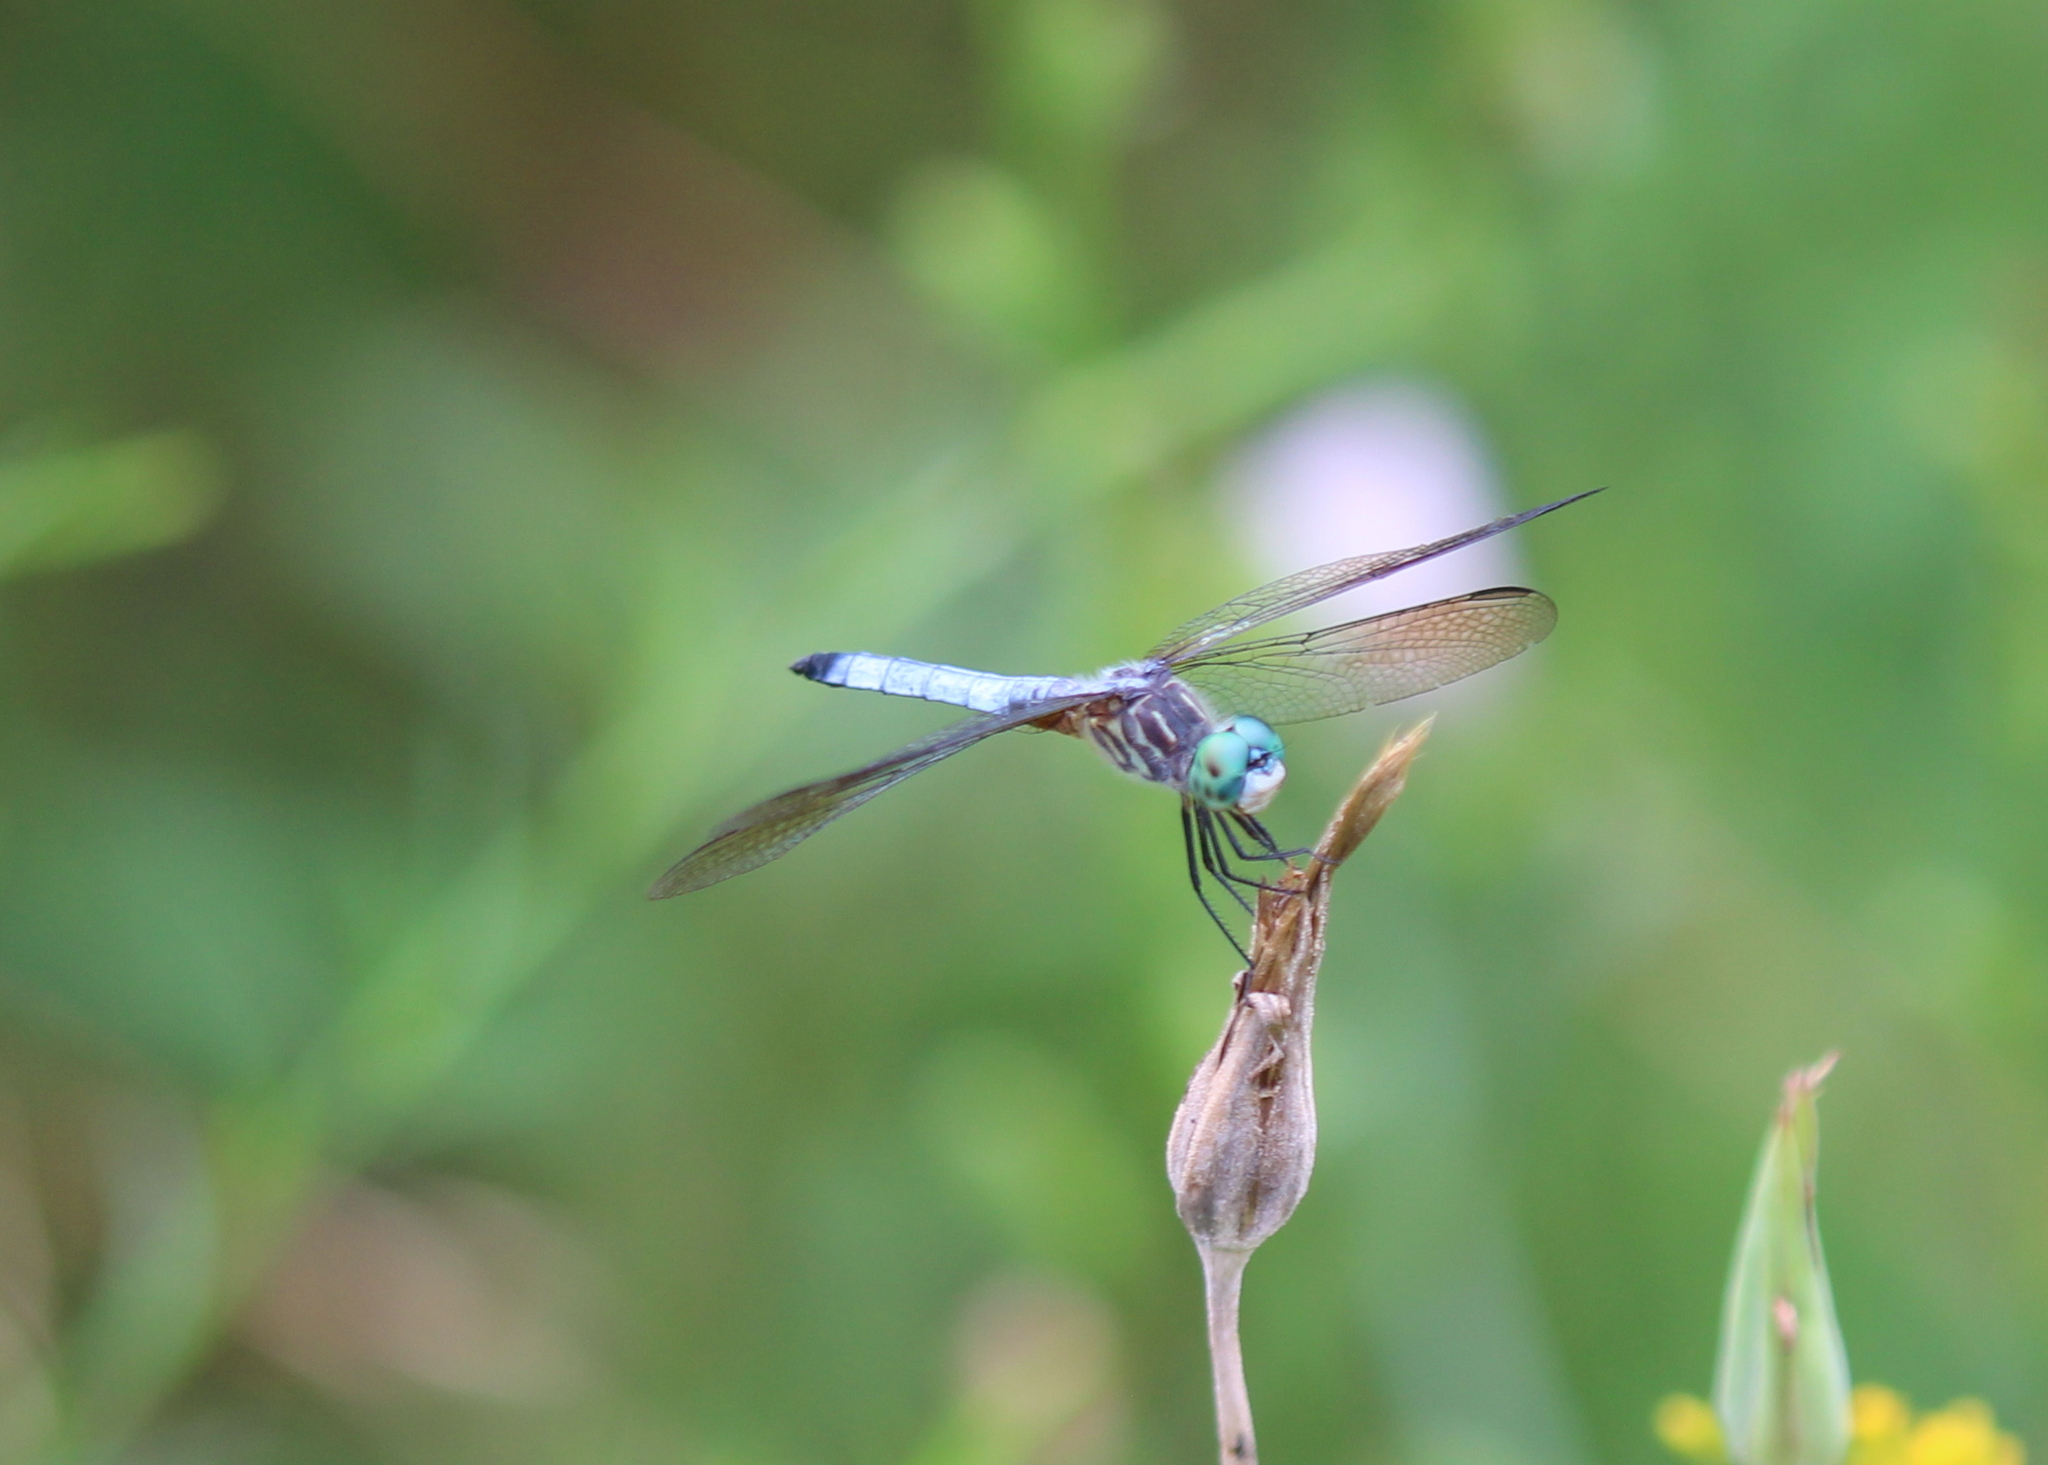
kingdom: Animalia
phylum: Arthropoda
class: Insecta
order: Odonata
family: Libellulidae
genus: Pachydiplax
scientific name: Pachydiplax longipennis
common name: Blue dasher
